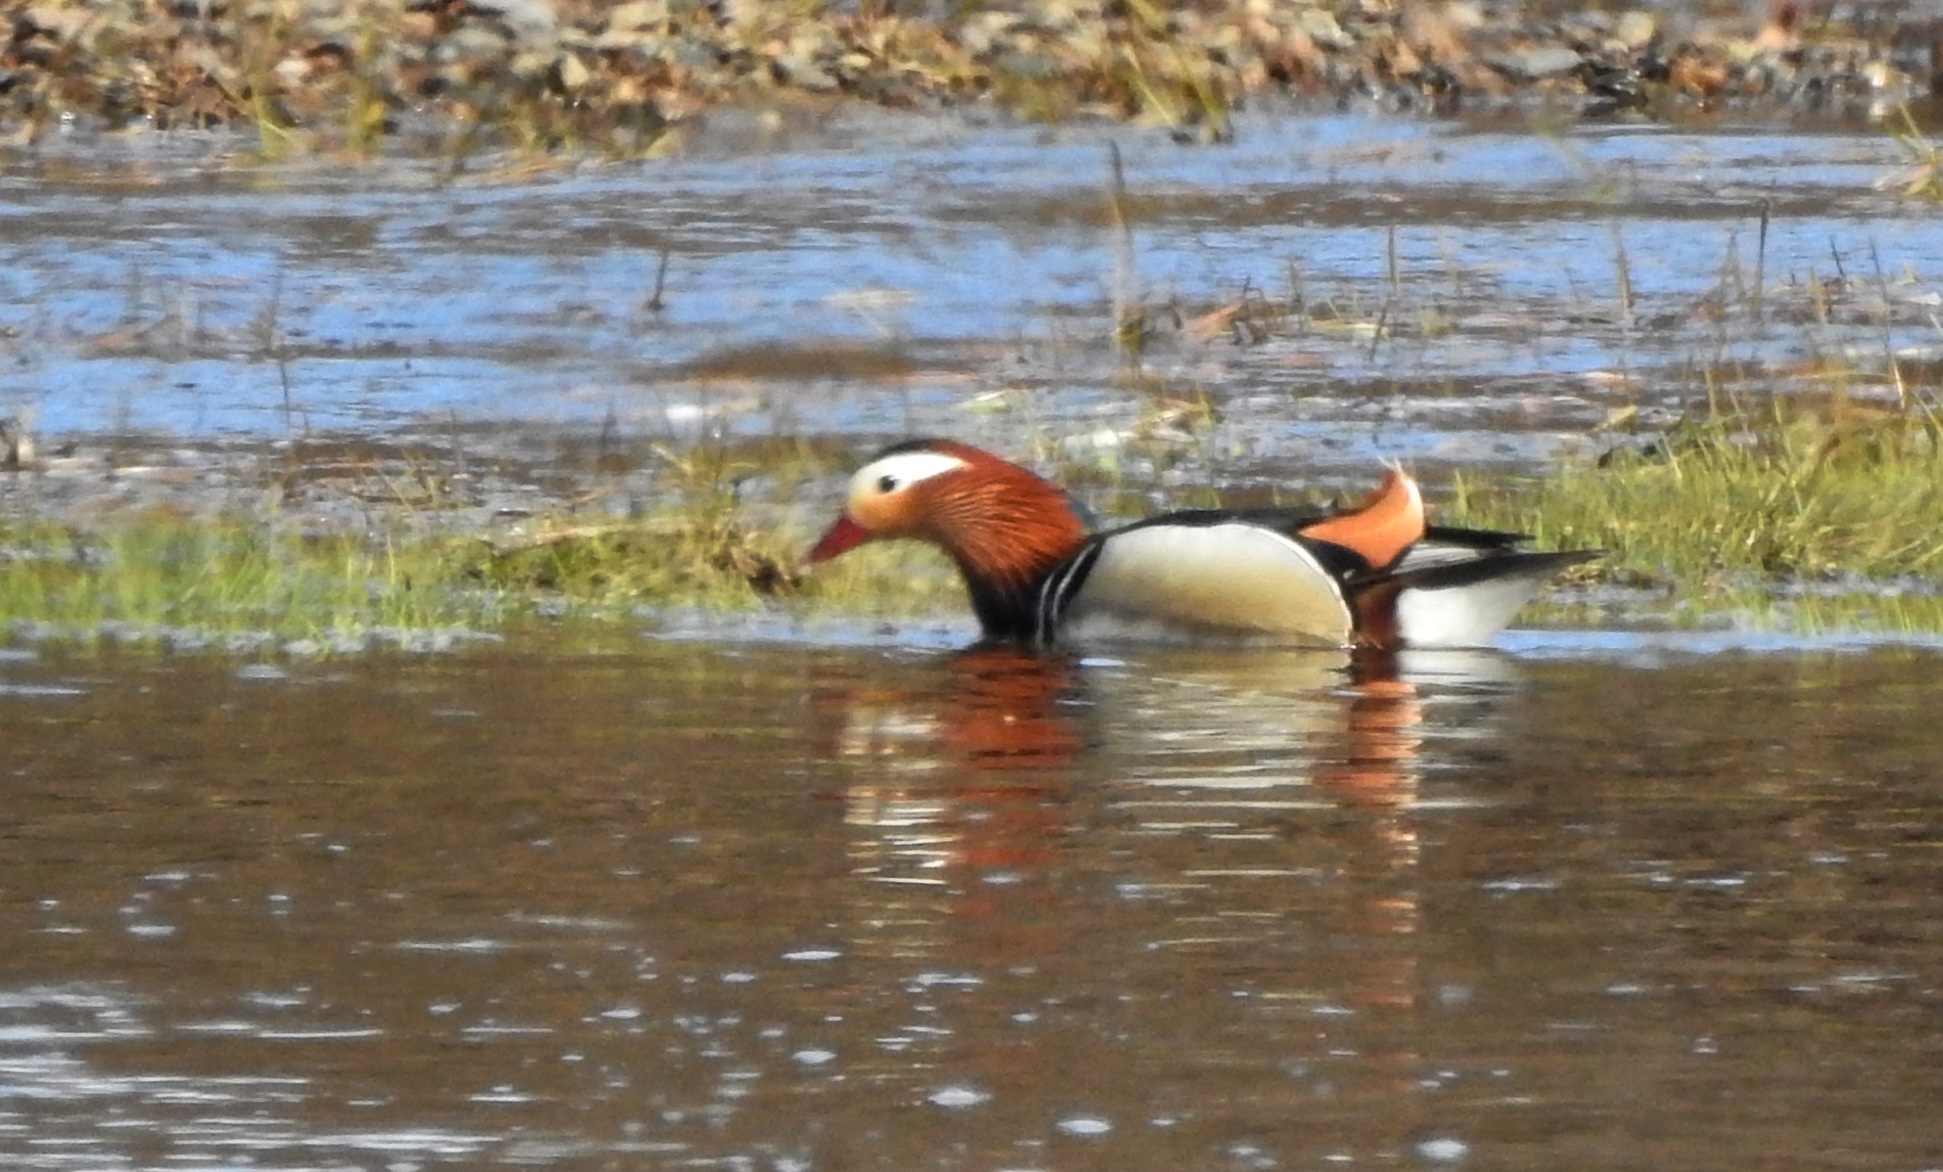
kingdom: Animalia
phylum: Chordata
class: Aves
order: Anseriformes
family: Anatidae
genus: Aix
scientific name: Aix galericulata
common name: Mandarin duck
